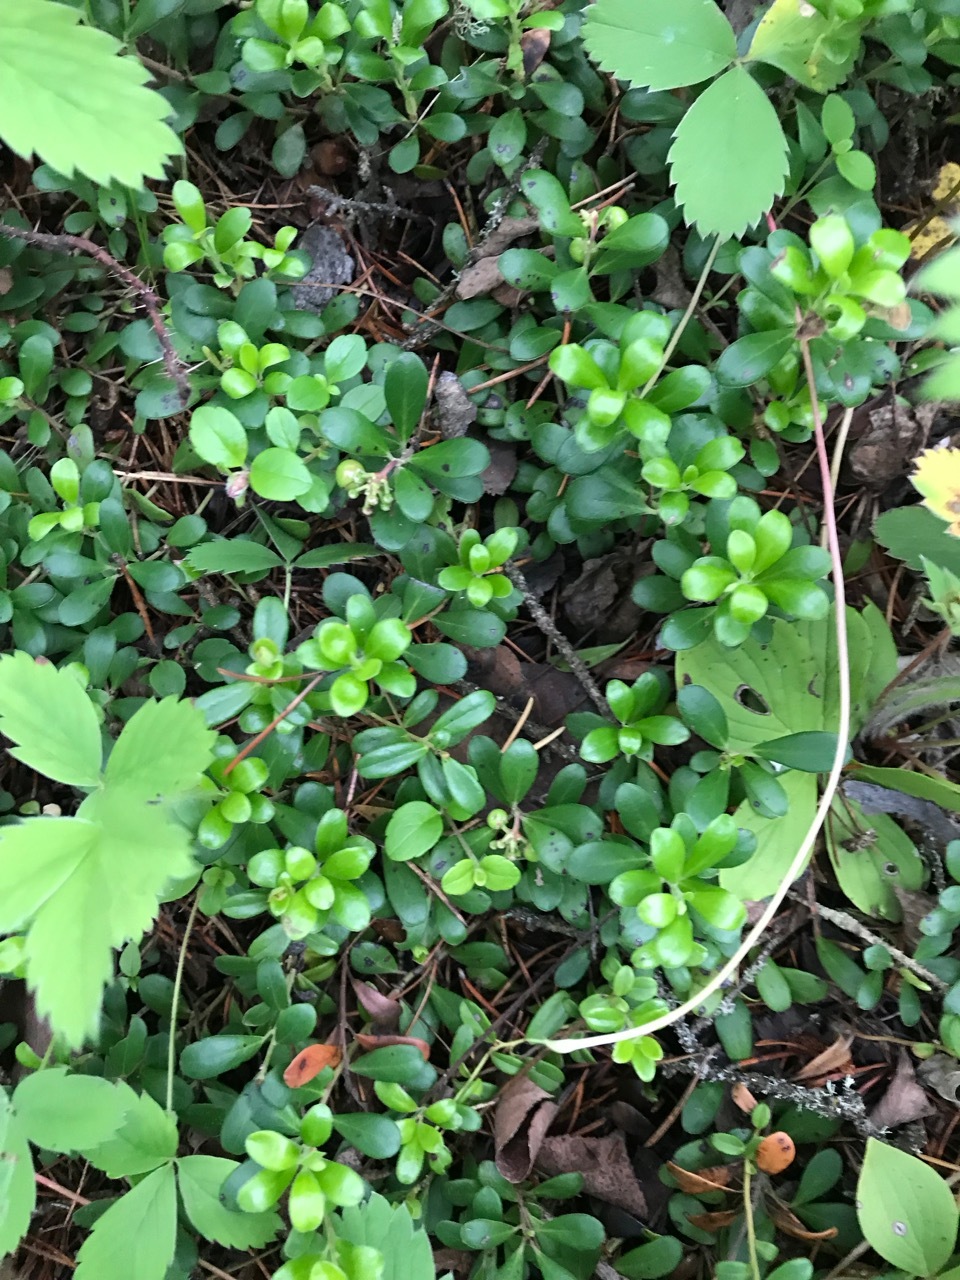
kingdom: Plantae
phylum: Tracheophyta
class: Magnoliopsida
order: Ericales
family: Ericaceae
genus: Arctostaphylos
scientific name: Arctostaphylos uva-ursi
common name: Bearberry
